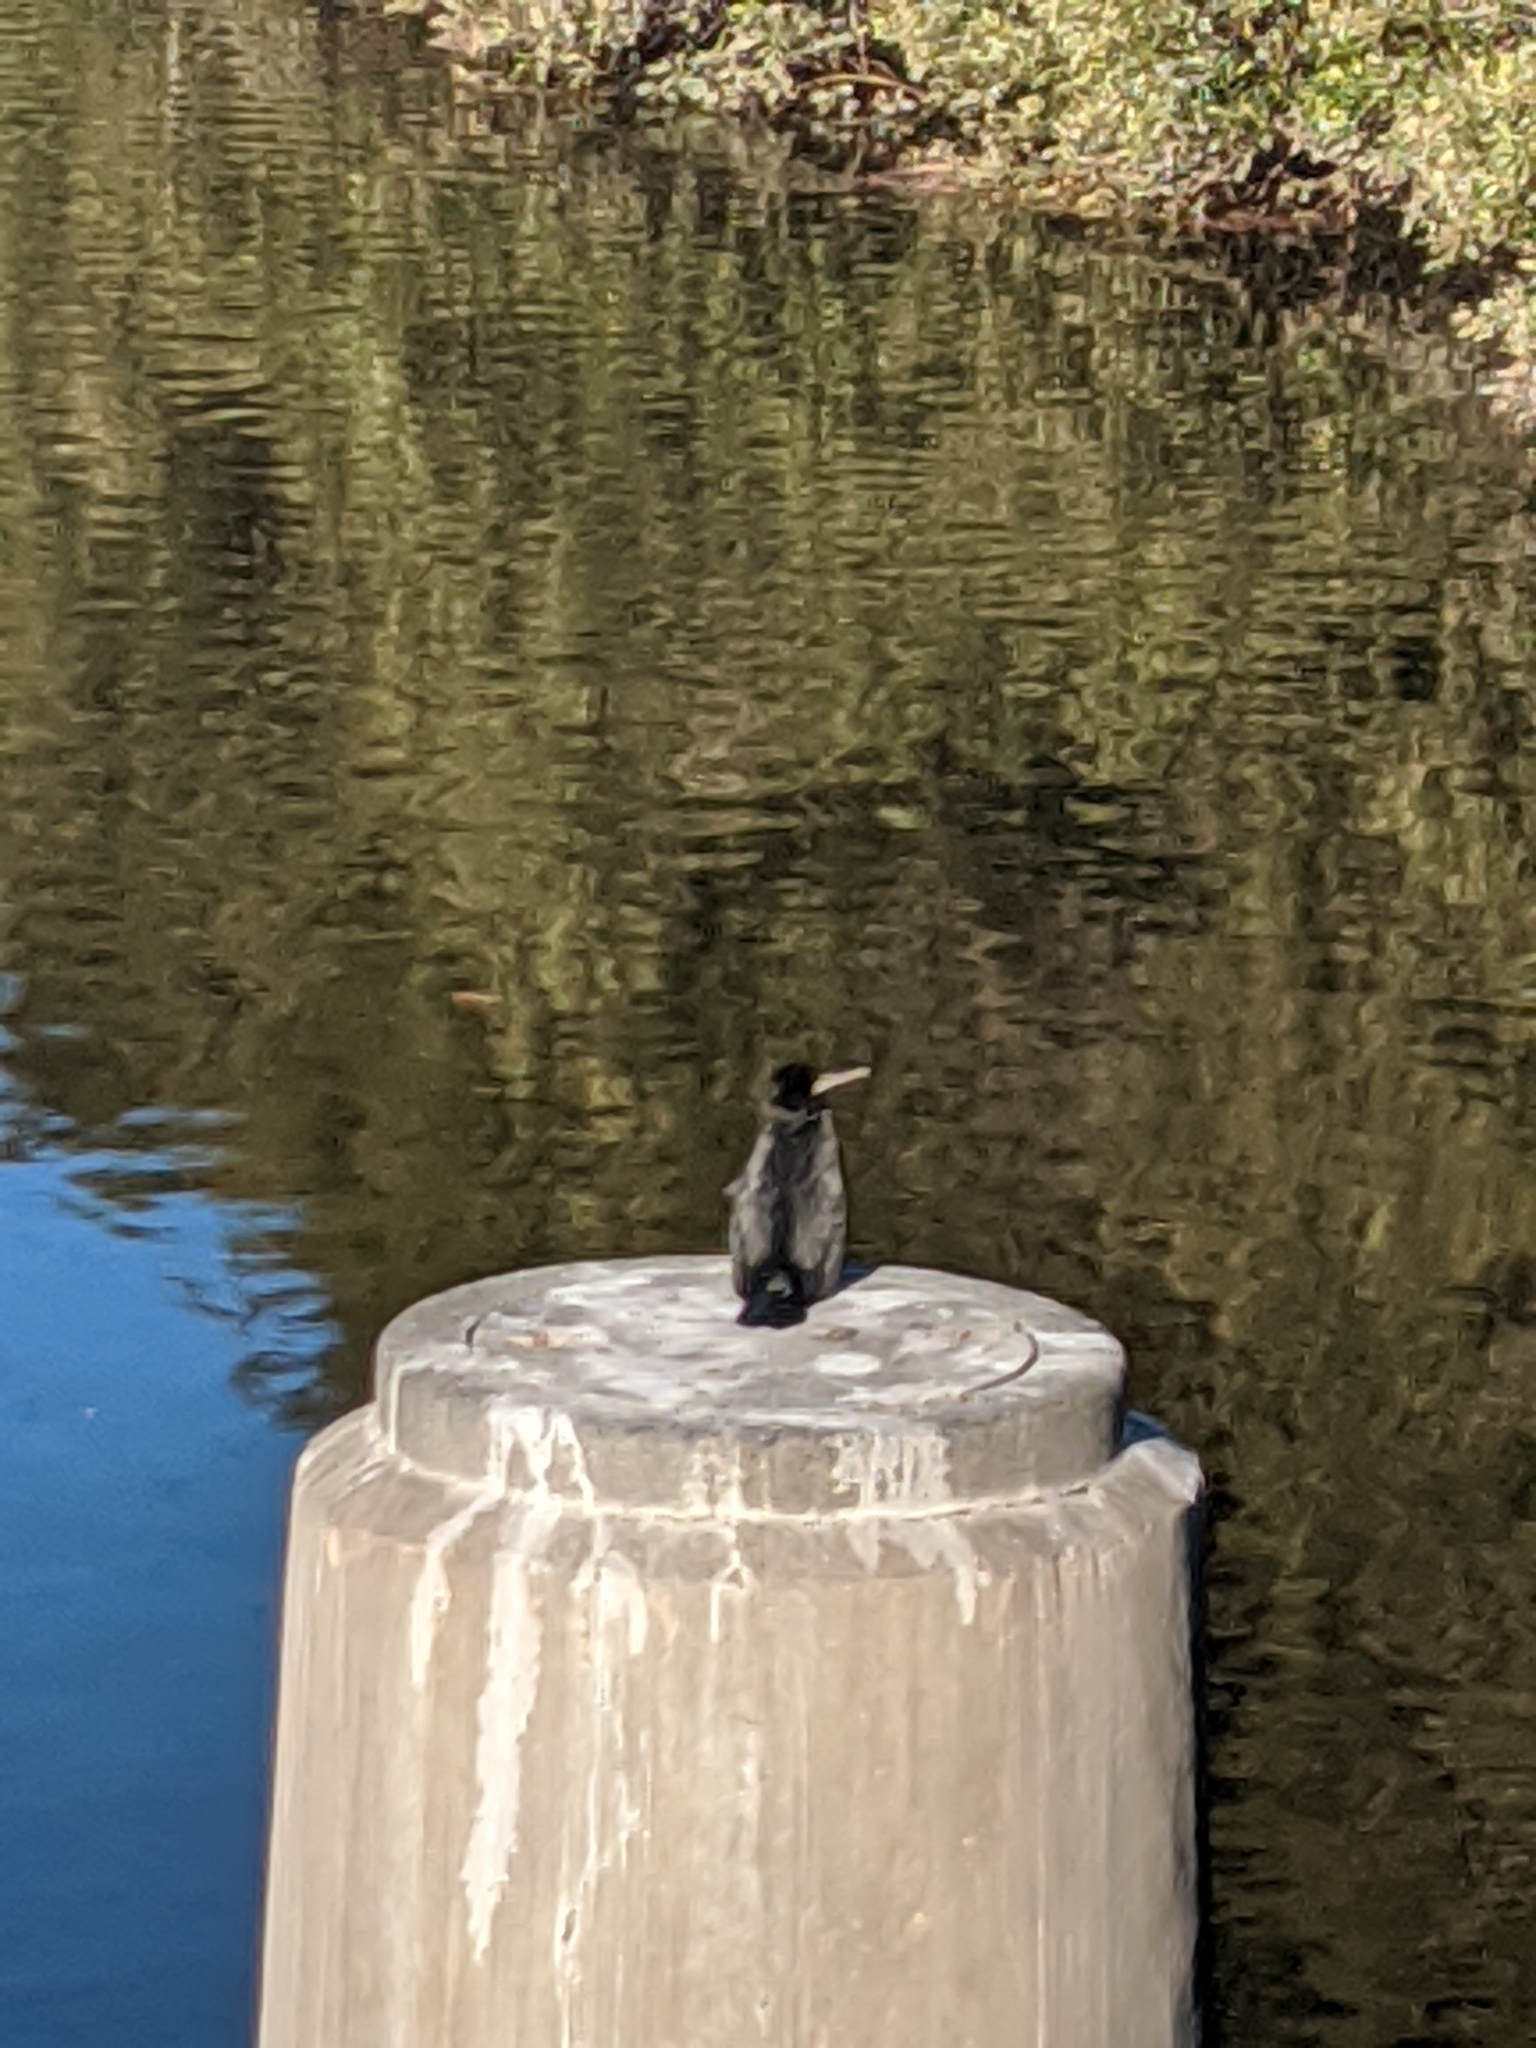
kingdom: Animalia
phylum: Chordata
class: Aves
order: Suliformes
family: Phalacrocoracidae
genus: Phalacrocorax
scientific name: Phalacrocorax sulcirostris
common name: Little black cormorant
